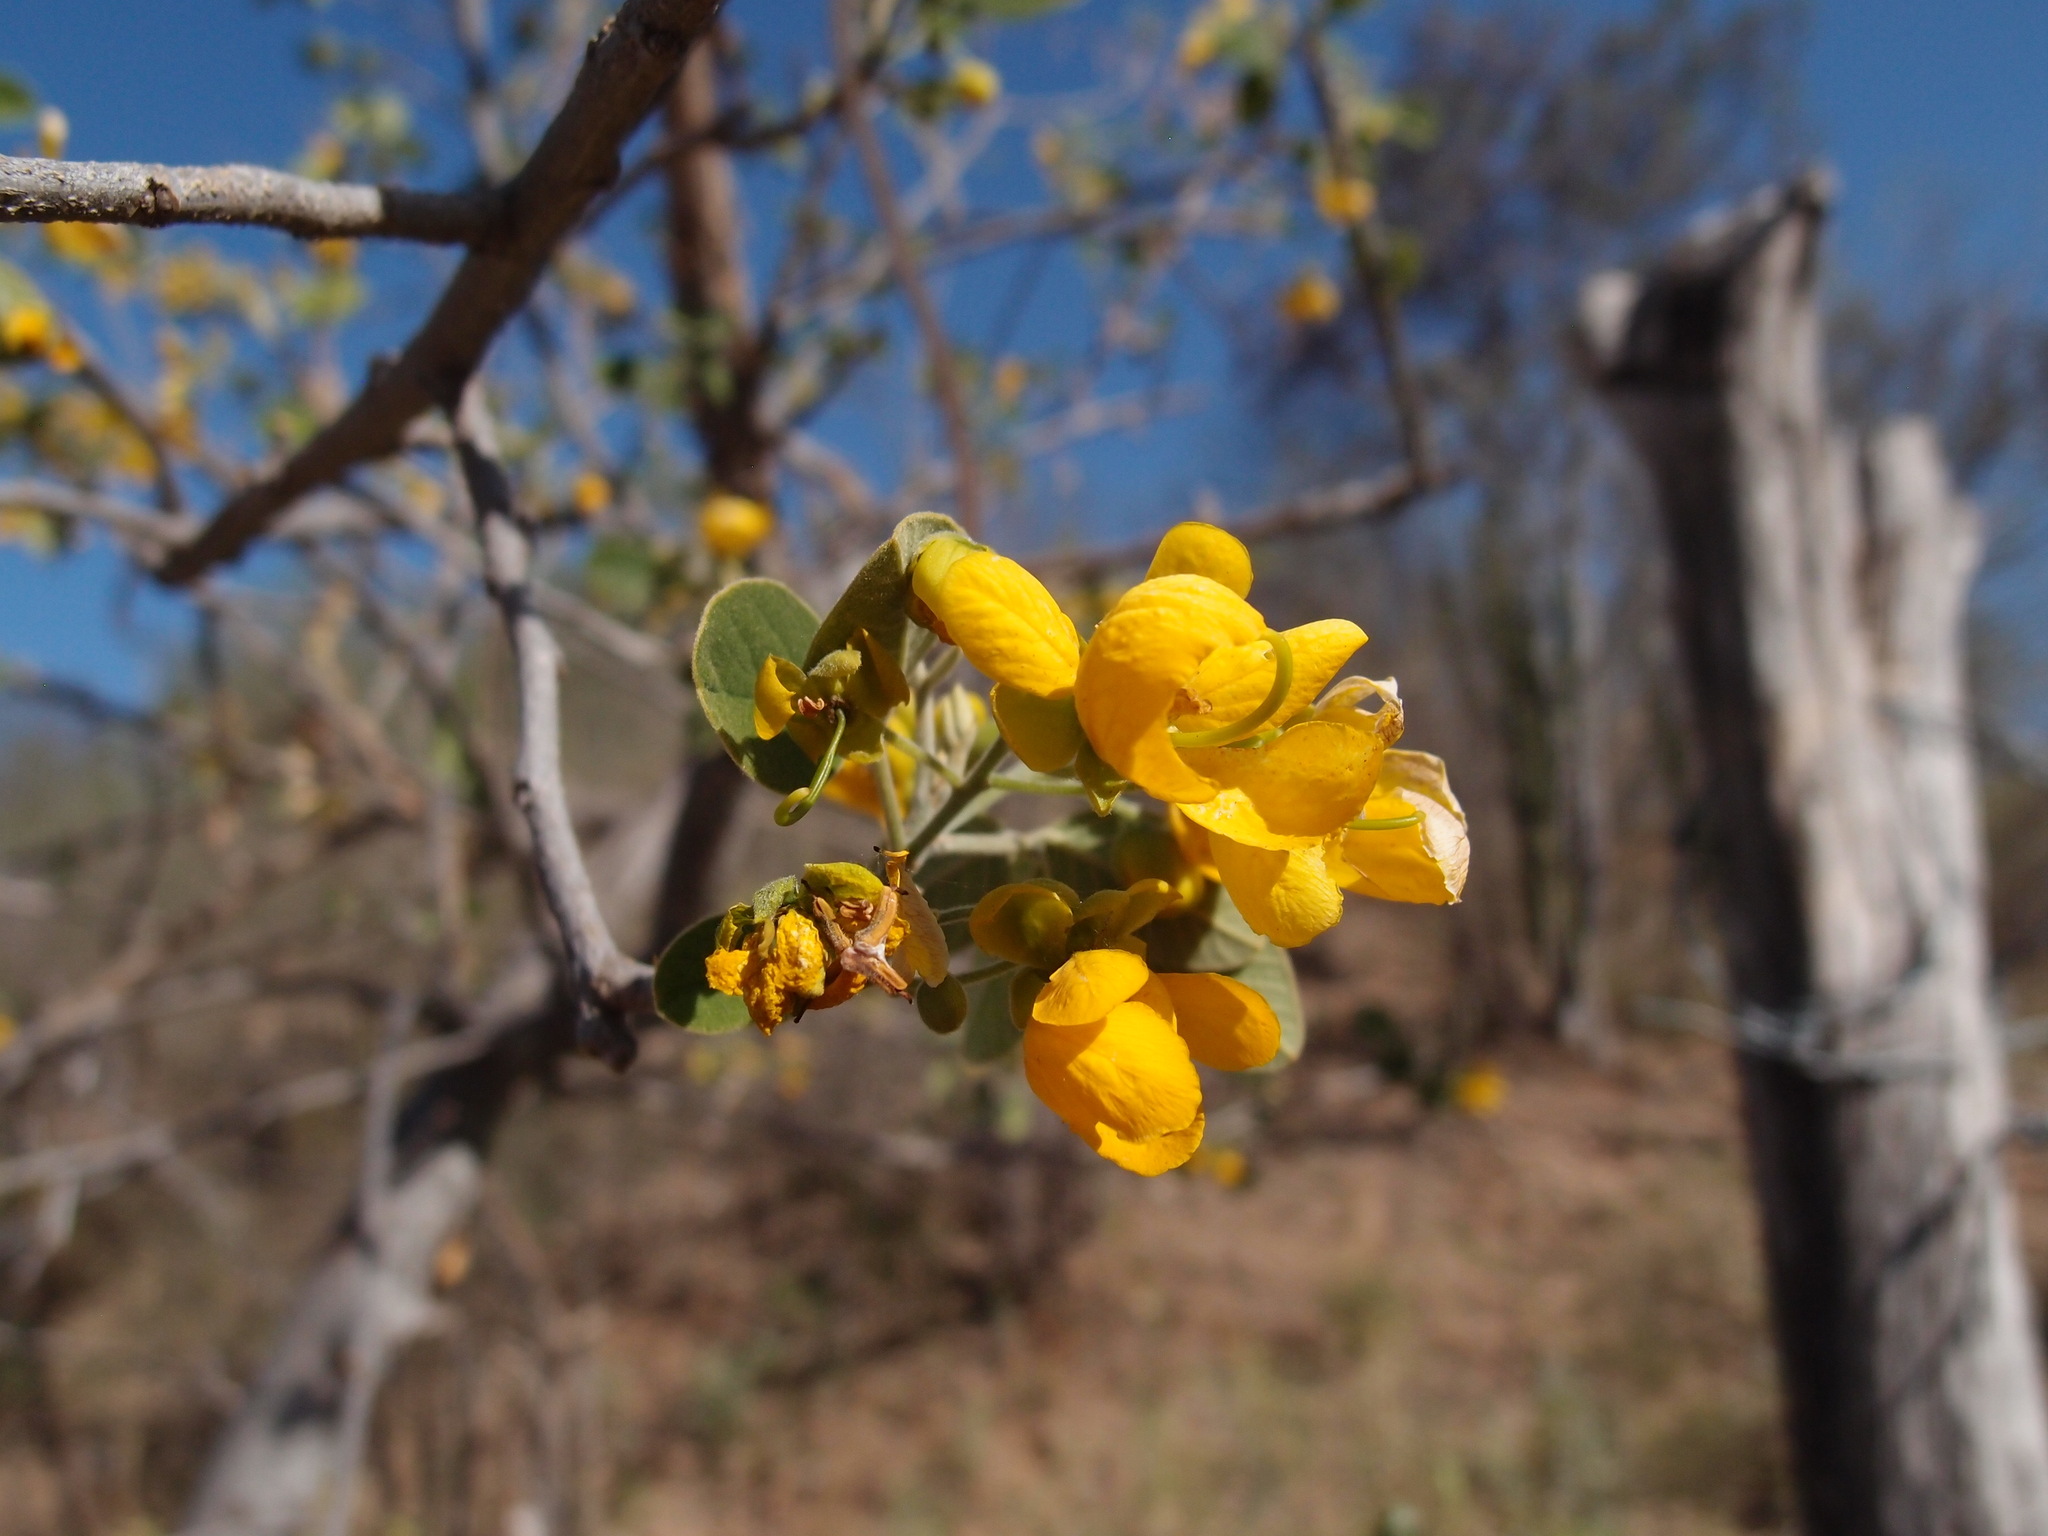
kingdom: Plantae
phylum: Tracheophyta
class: Magnoliopsida
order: Fabales
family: Fabaceae
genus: Senna
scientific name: Senna atomaria
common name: Flor de san jose
